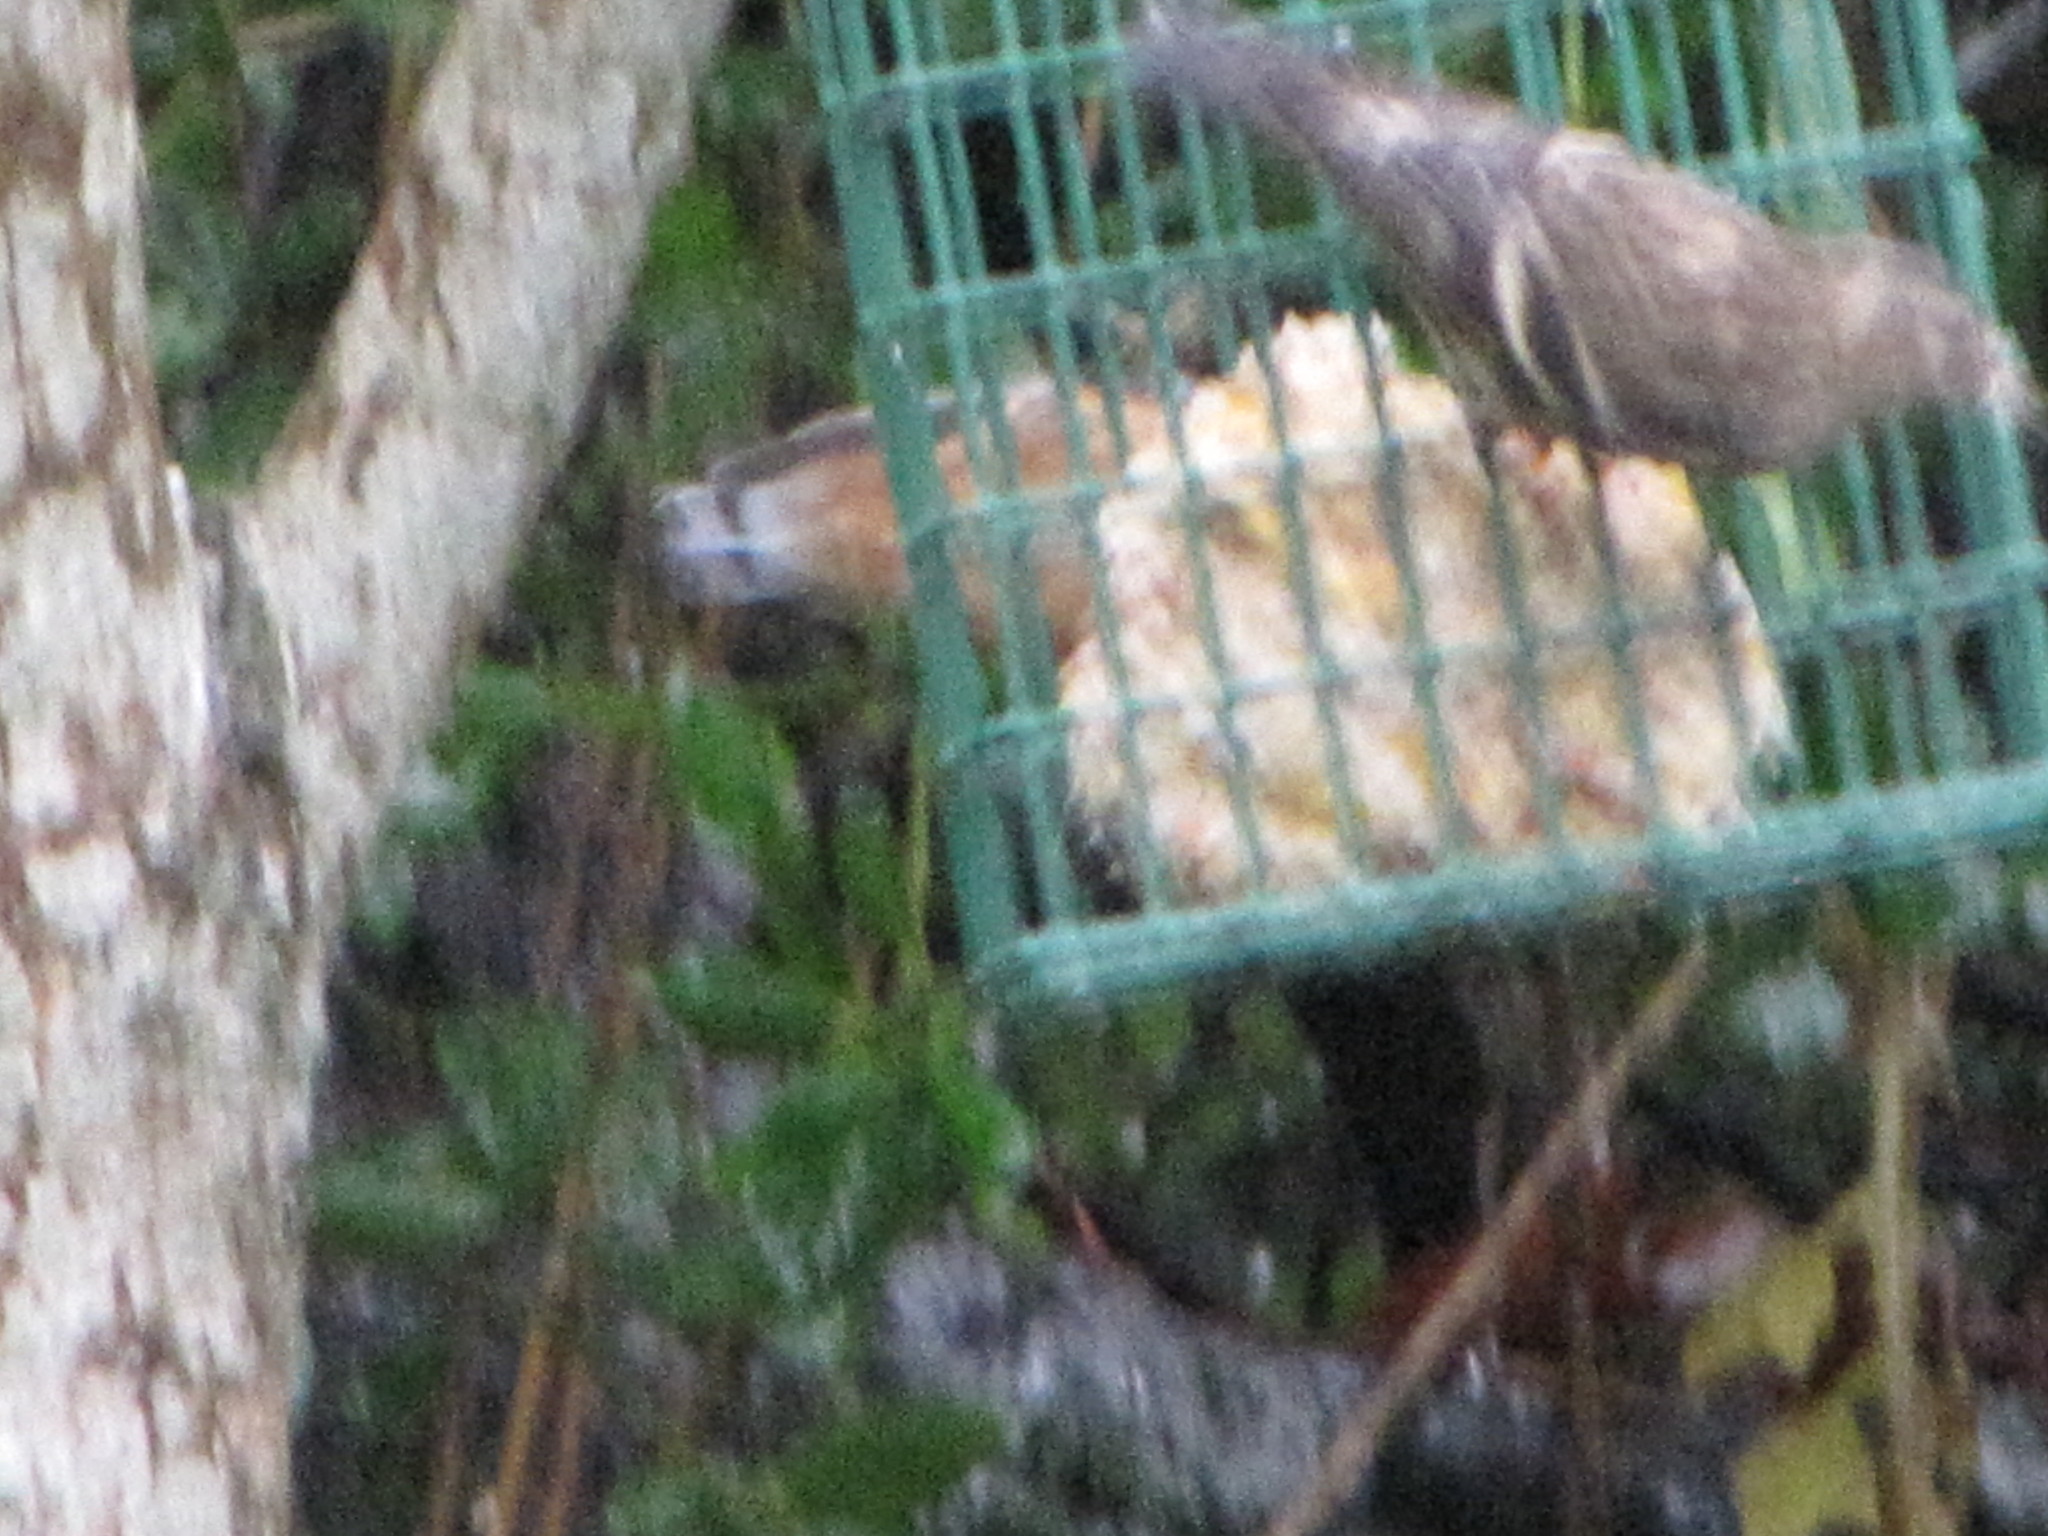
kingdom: Animalia
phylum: Chordata
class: Aves
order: Passeriformes
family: Fringillidae
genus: Spinus
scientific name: Spinus pinus
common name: Pine siskin
